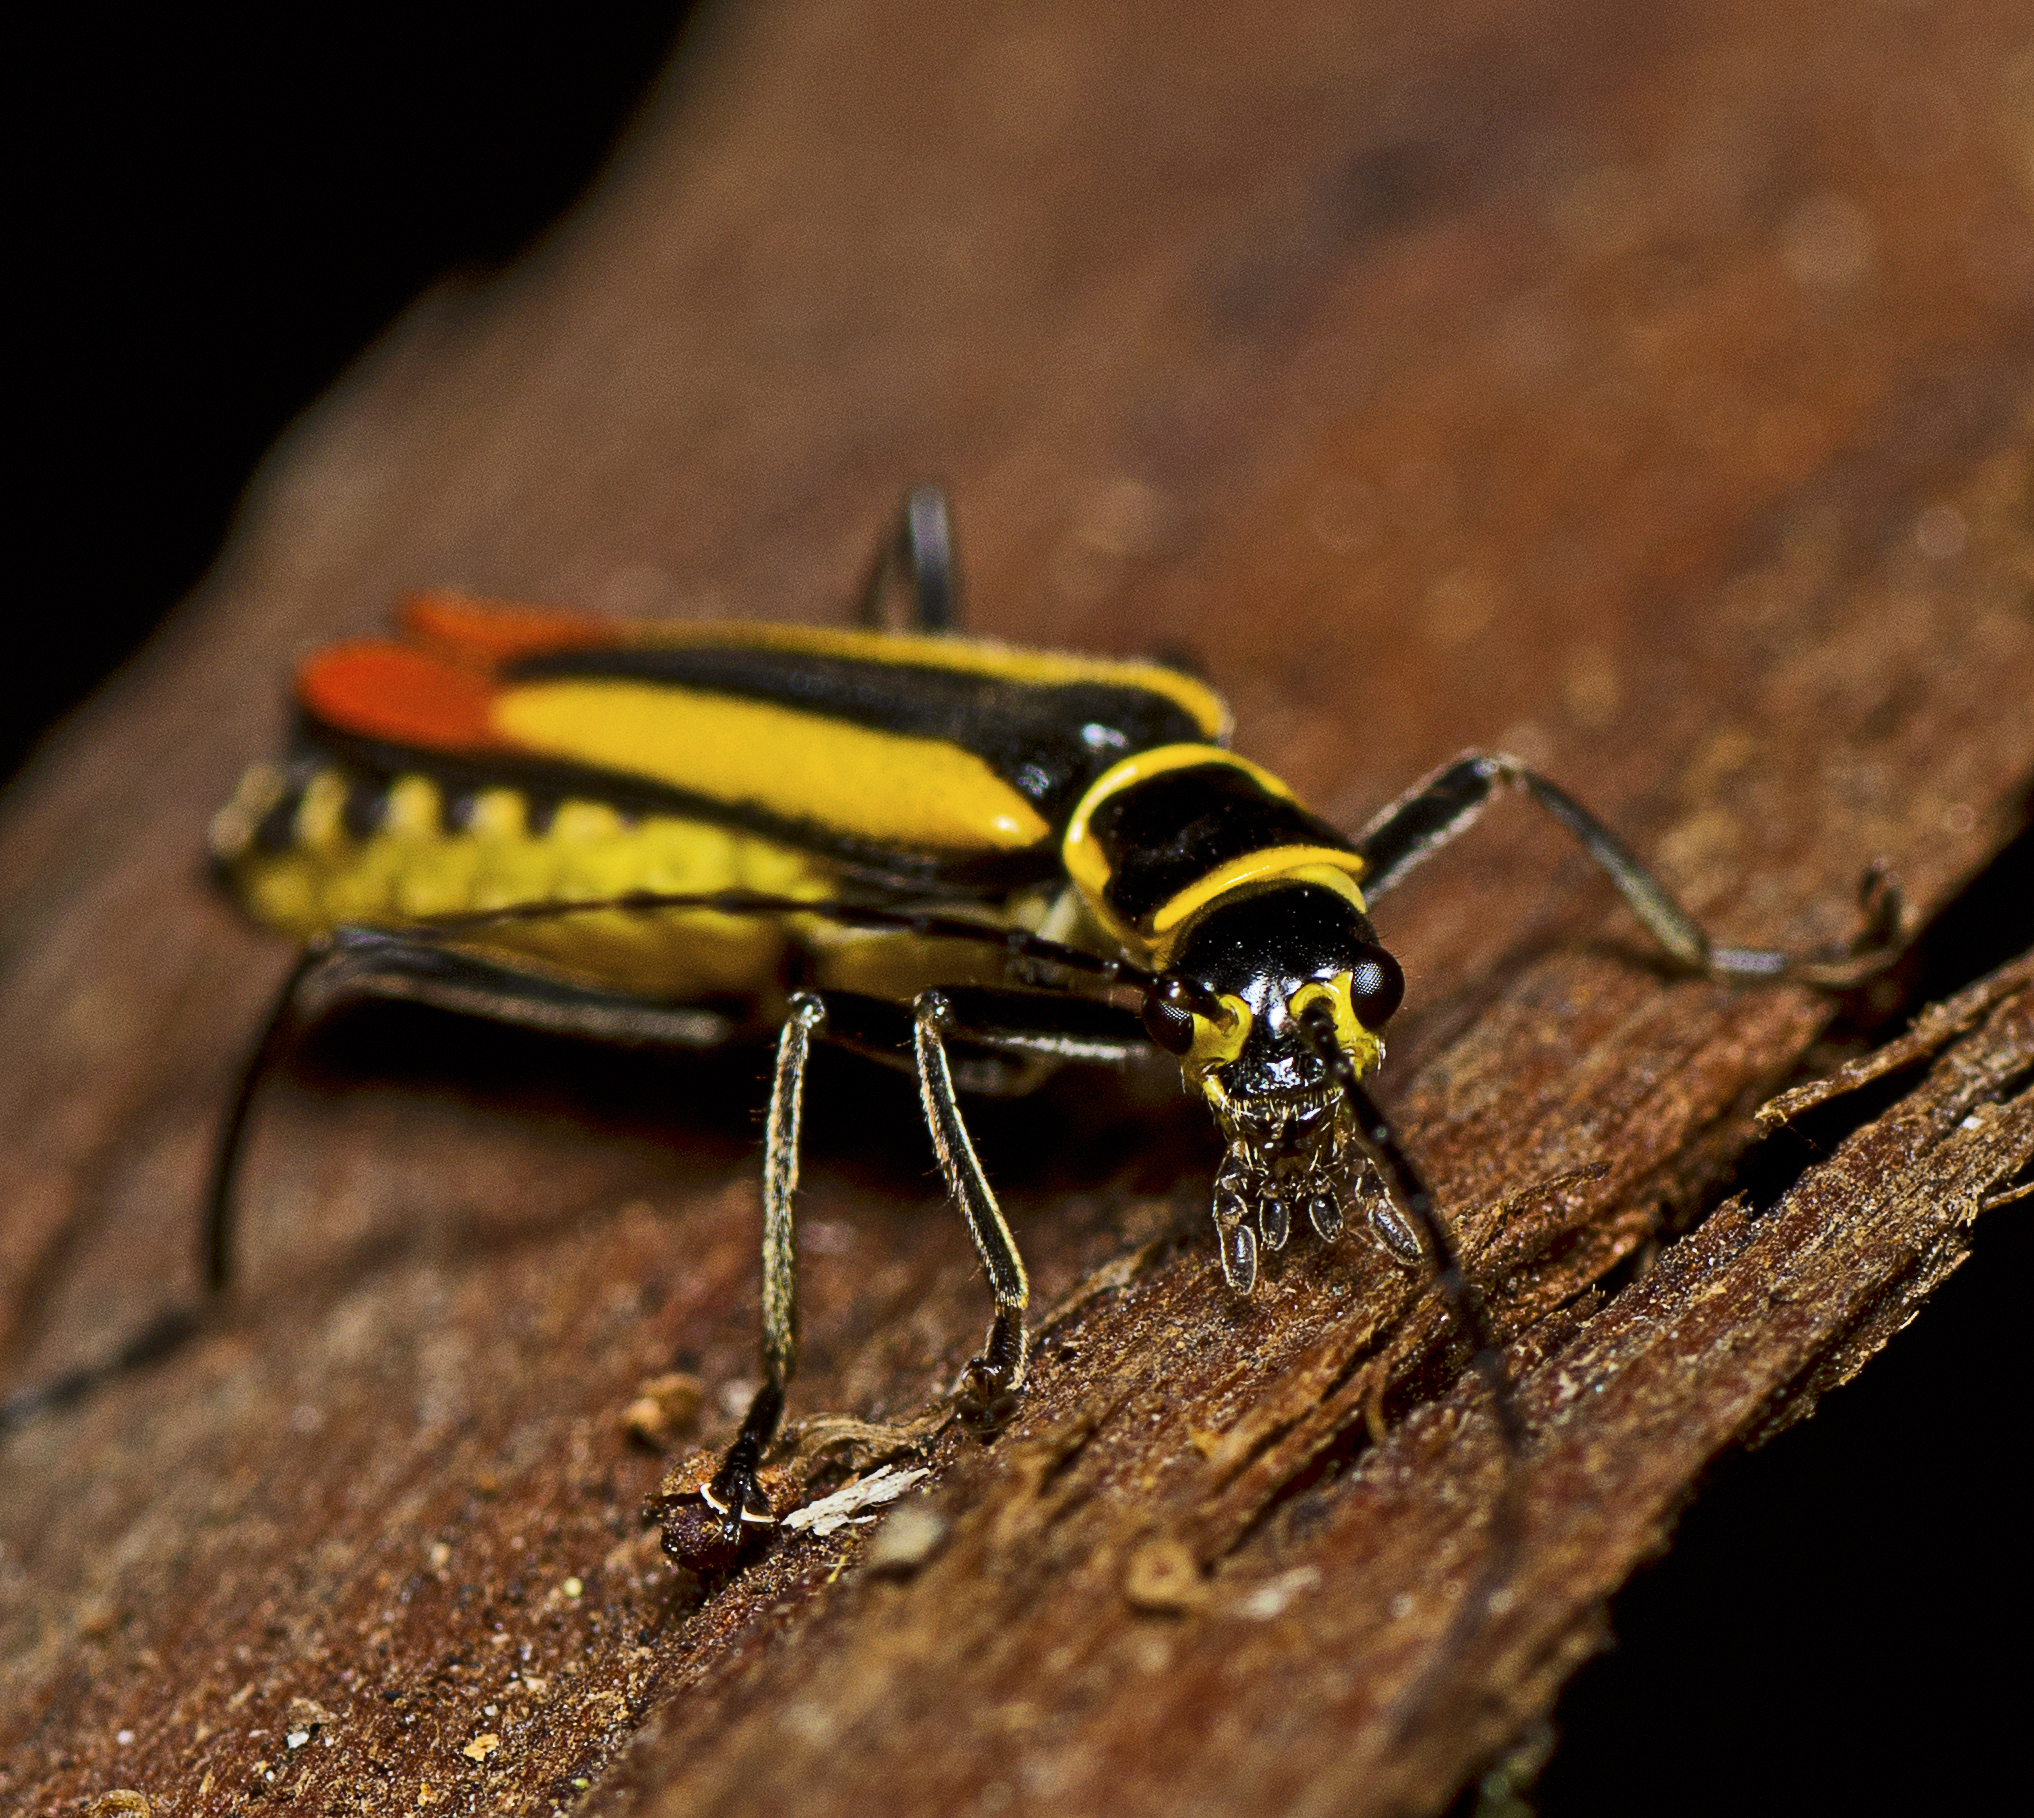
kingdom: Animalia
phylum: Arthropoda
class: Insecta
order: Coleoptera
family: Cantharidae
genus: Chauliognathus
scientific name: Chauliognathus
